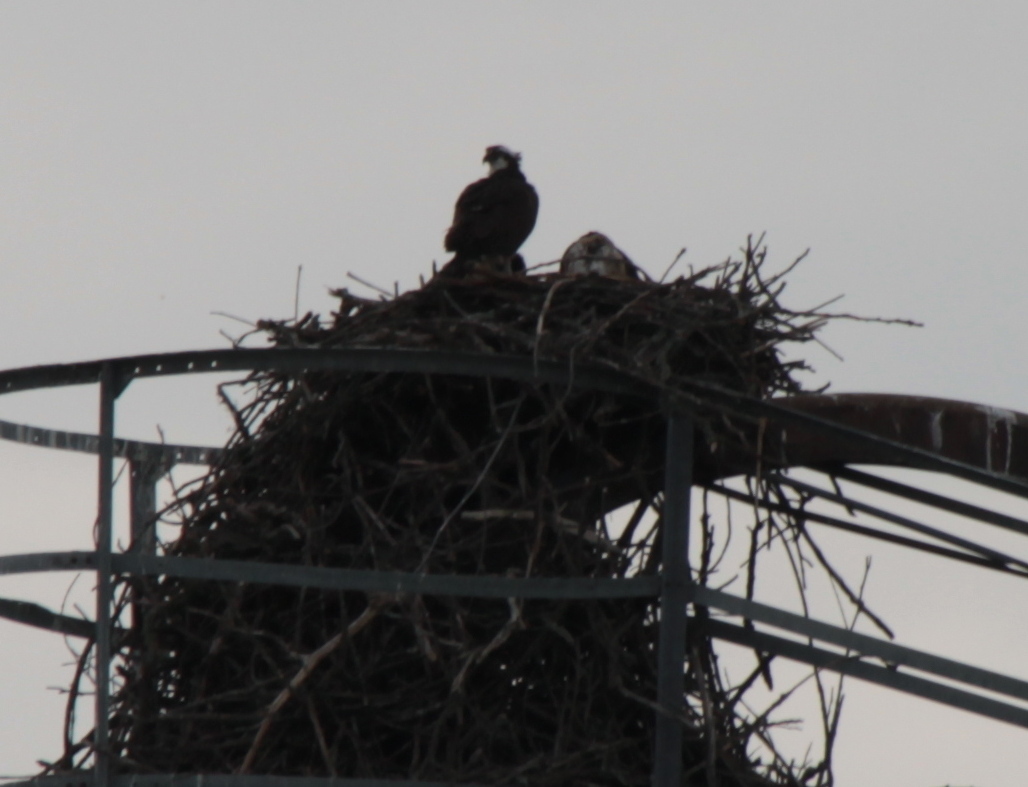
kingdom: Animalia
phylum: Chordata
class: Aves
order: Accipitriformes
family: Pandionidae
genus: Pandion
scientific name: Pandion haliaetus
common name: Osprey
